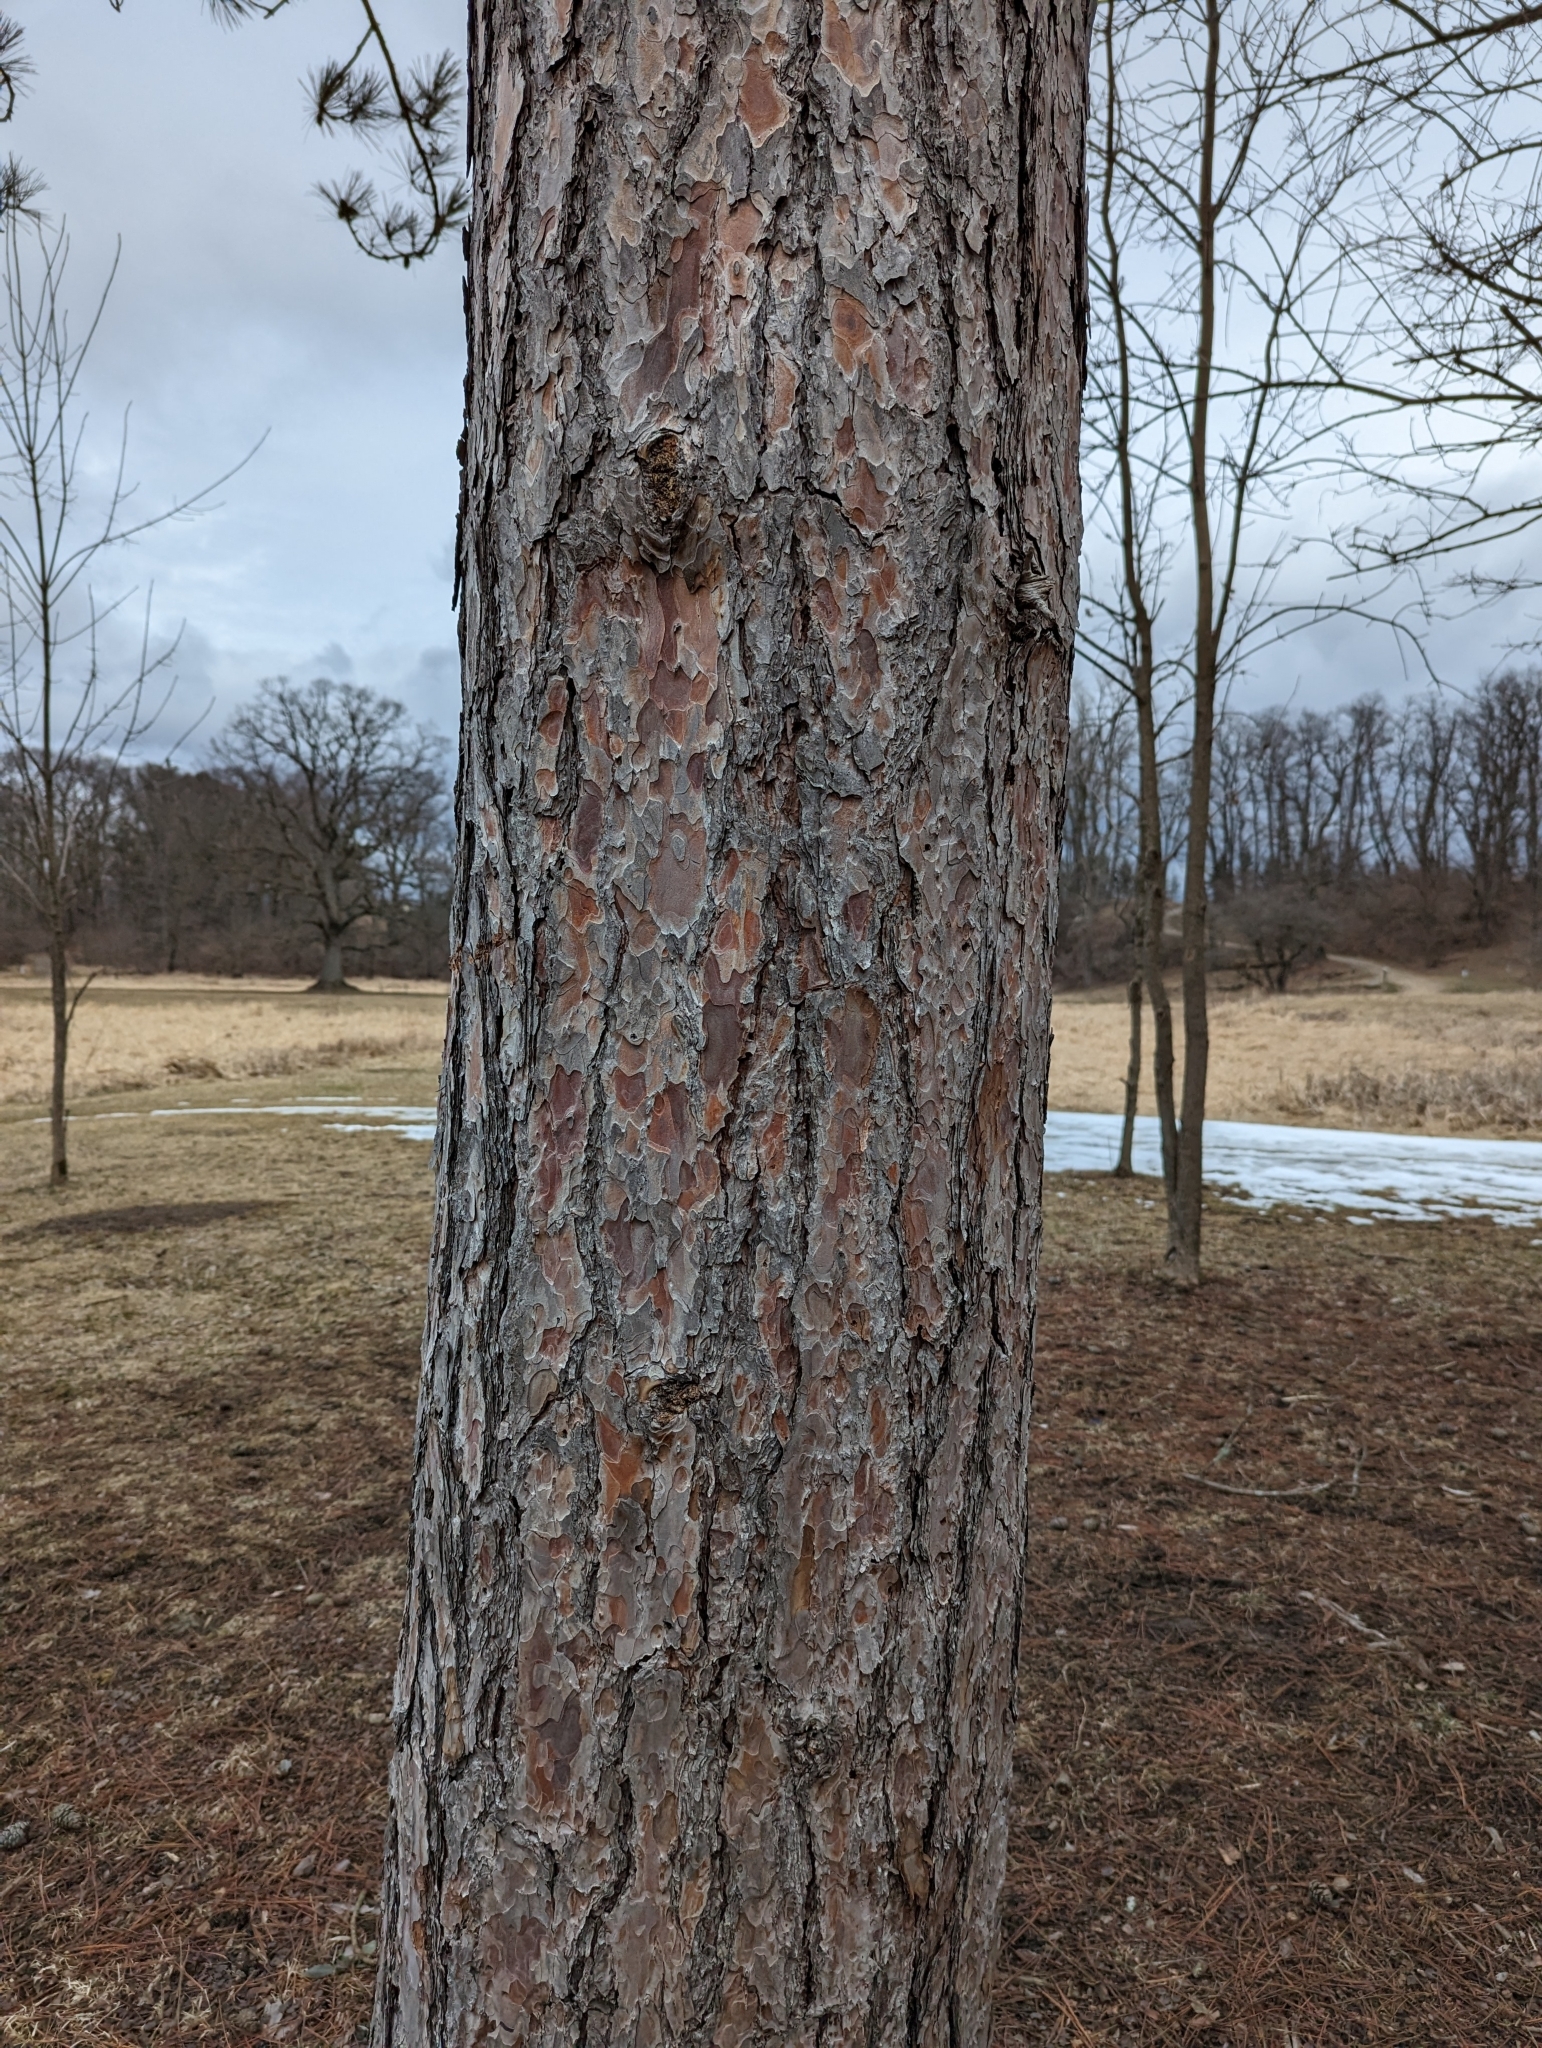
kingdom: Plantae
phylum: Tracheophyta
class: Pinopsida
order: Pinales
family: Pinaceae
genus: Pinus
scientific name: Pinus resinosa
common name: Norway pine
